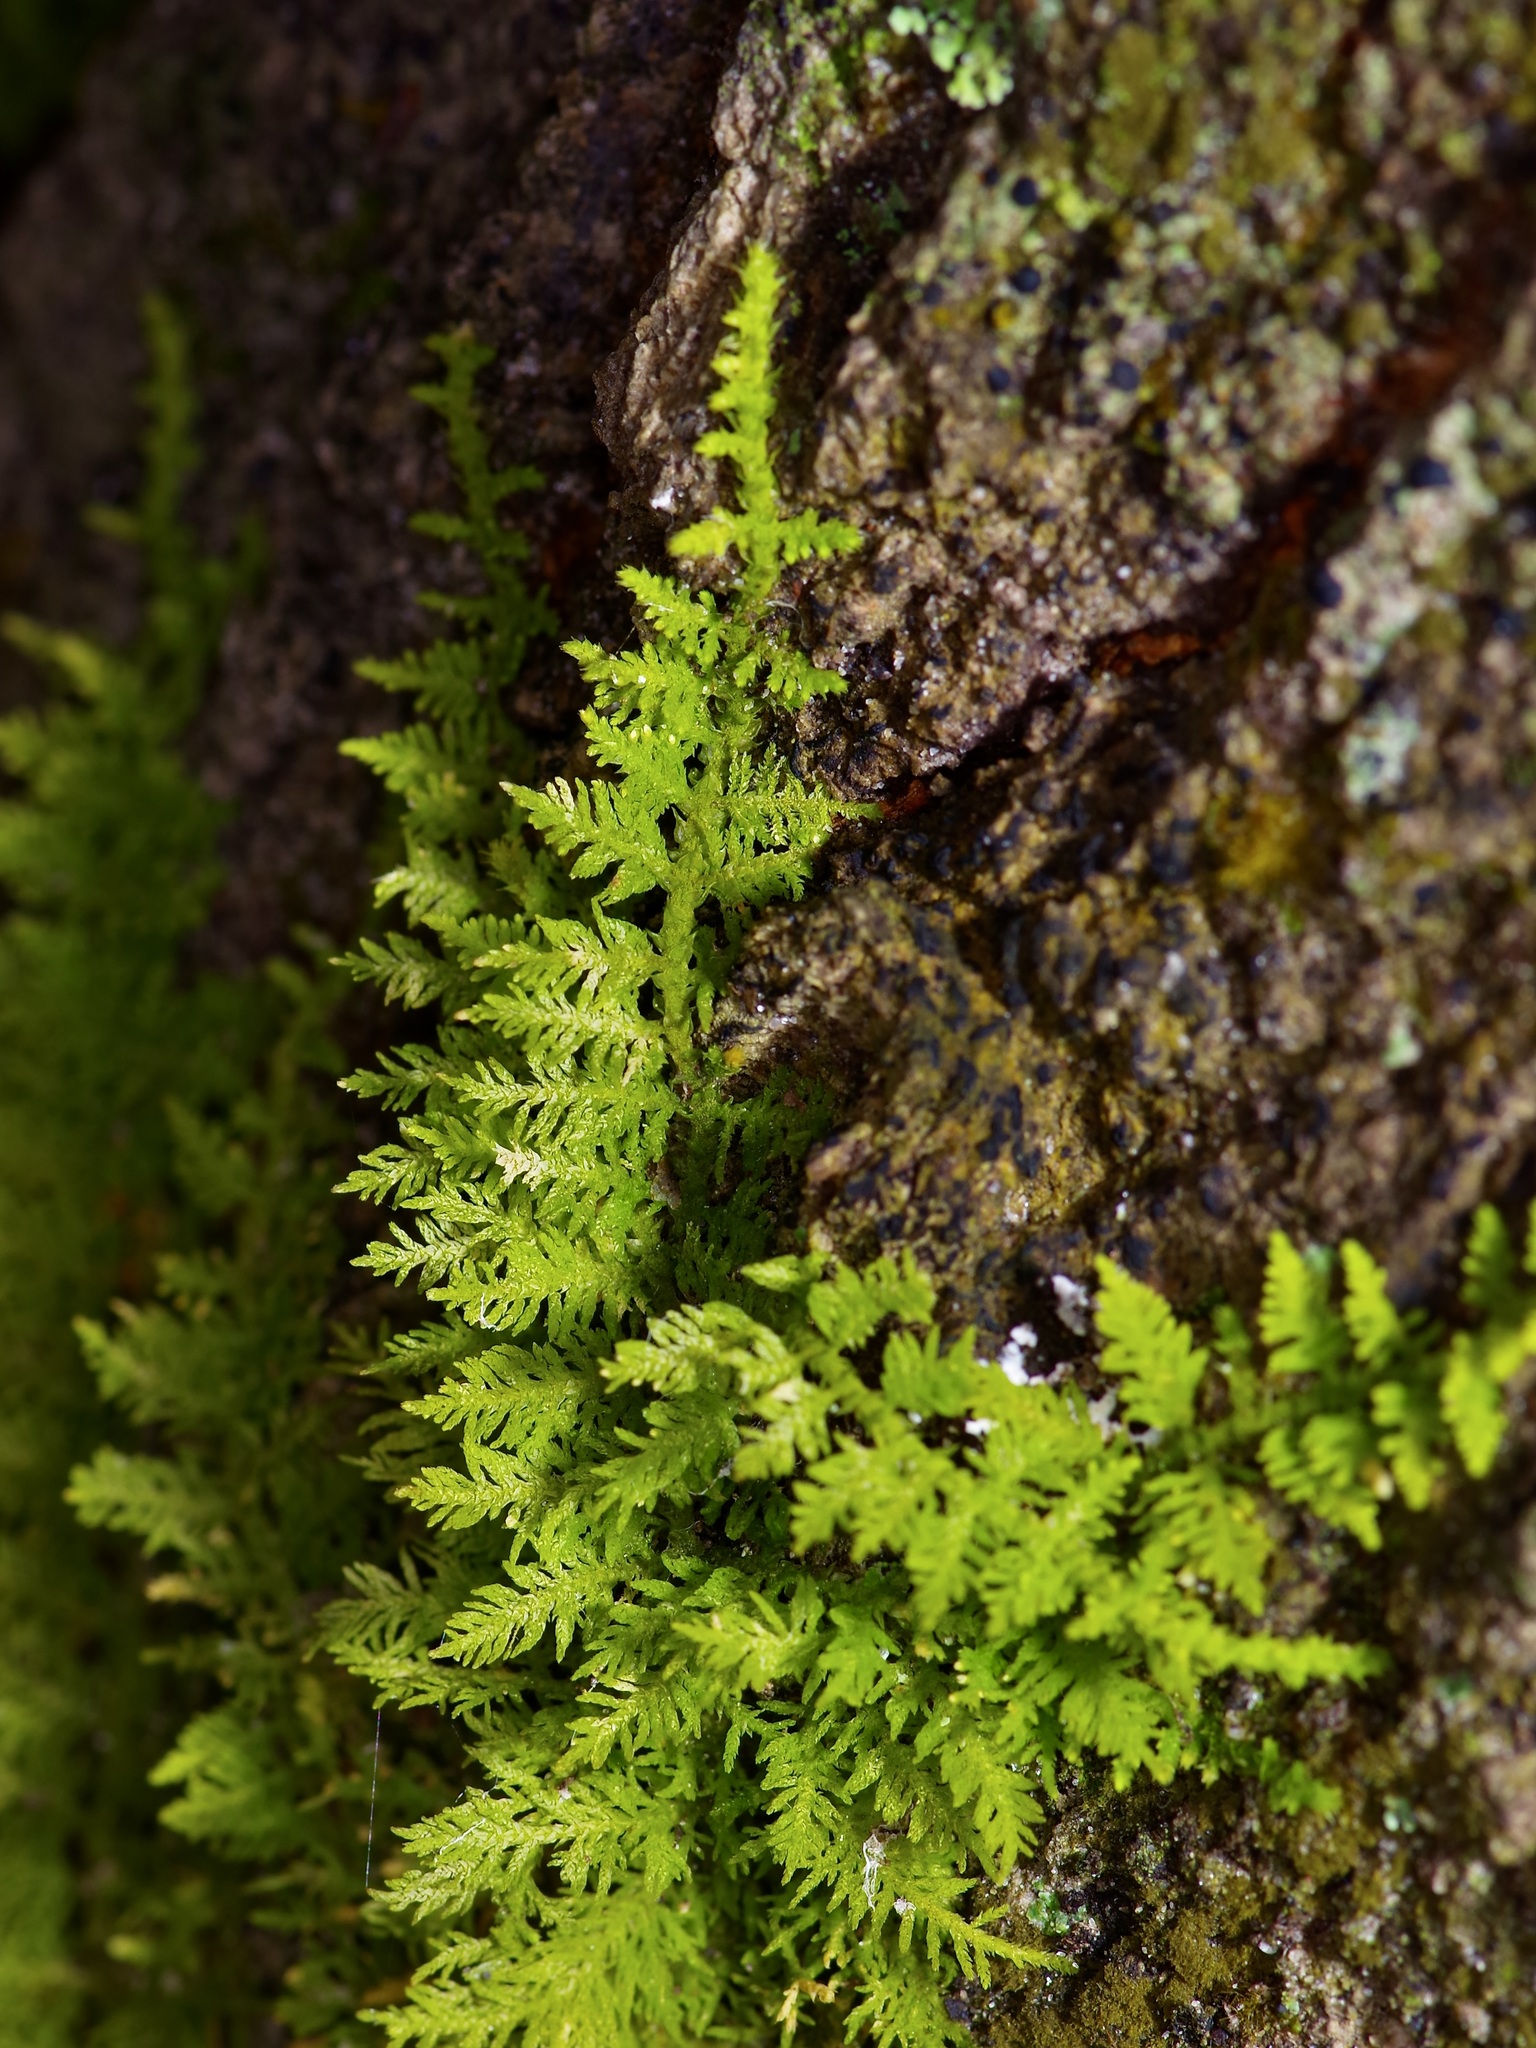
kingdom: Plantae
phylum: Bryophyta
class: Bryopsida
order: Hypnales
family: Thuidiaceae
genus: Thuidium
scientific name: Thuidium delicatulum
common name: Delicate fern moss
